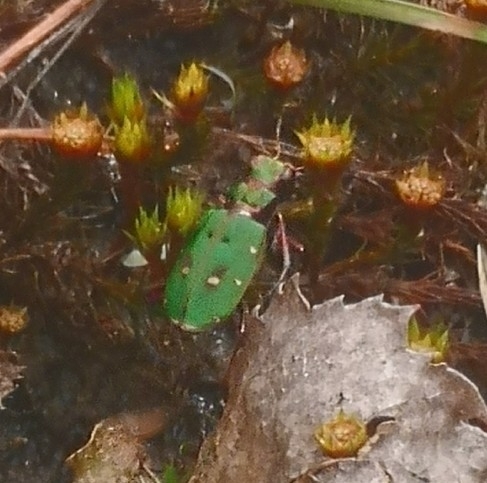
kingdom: Animalia
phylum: Arthropoda
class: Insecta
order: Coleoptera
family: Carabidae
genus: Cicindela
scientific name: Cicindela campestris
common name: Common tiger beetle
